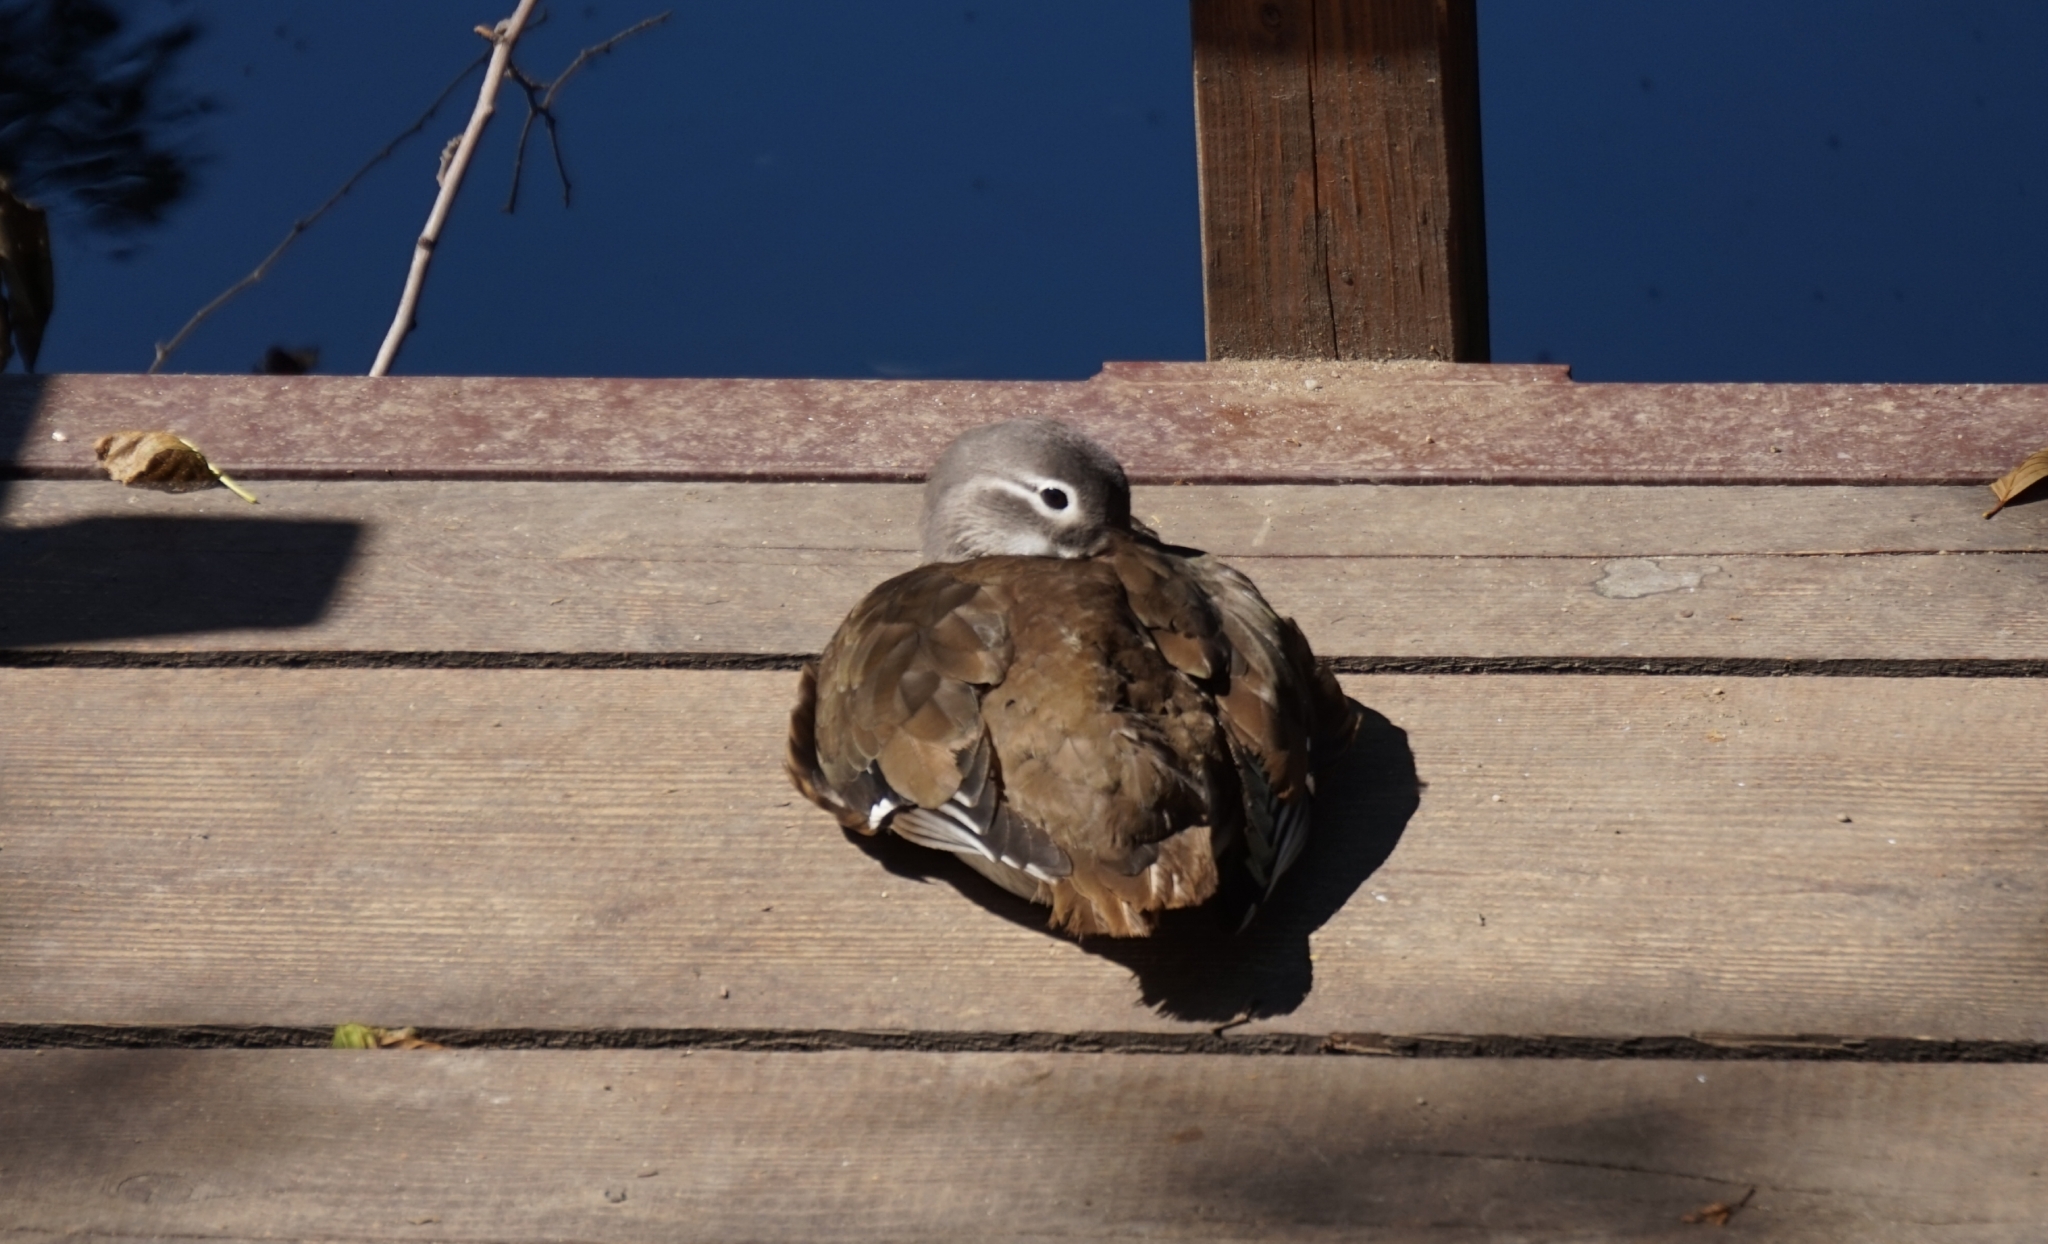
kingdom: Animalia
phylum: Chordata
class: Aves
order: Anseriformes
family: Anatidae
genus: Aix
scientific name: Aix galericulata
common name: Mandarin duck
